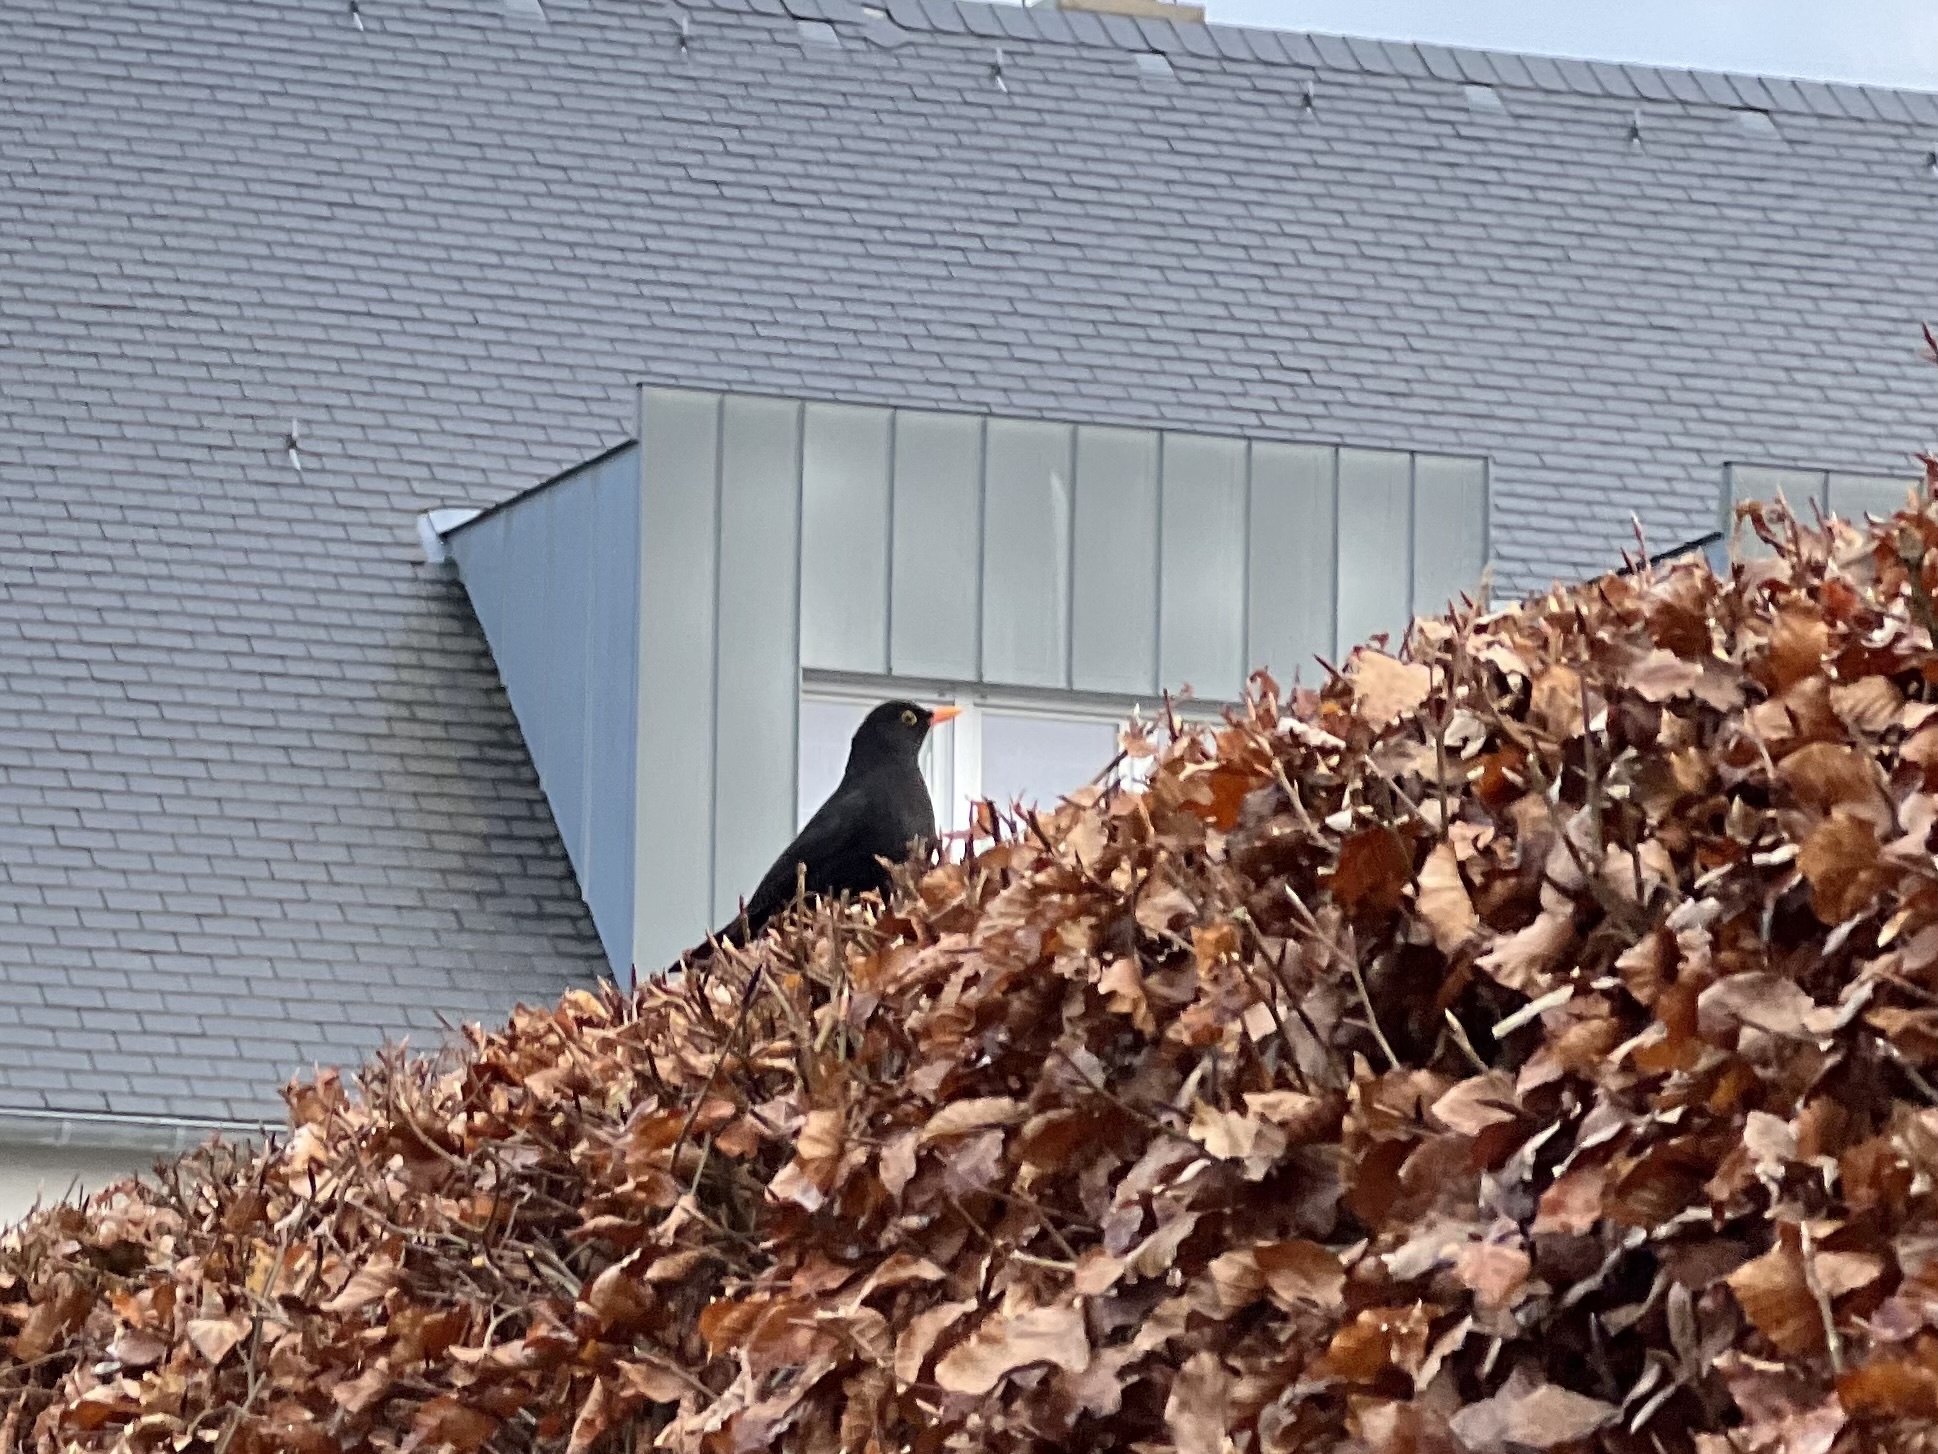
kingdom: Animalia
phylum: Chordata
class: Aves
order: Passeriformes
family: Turdidae
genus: Turdus
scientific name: Turdus merula
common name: Common blackbird
